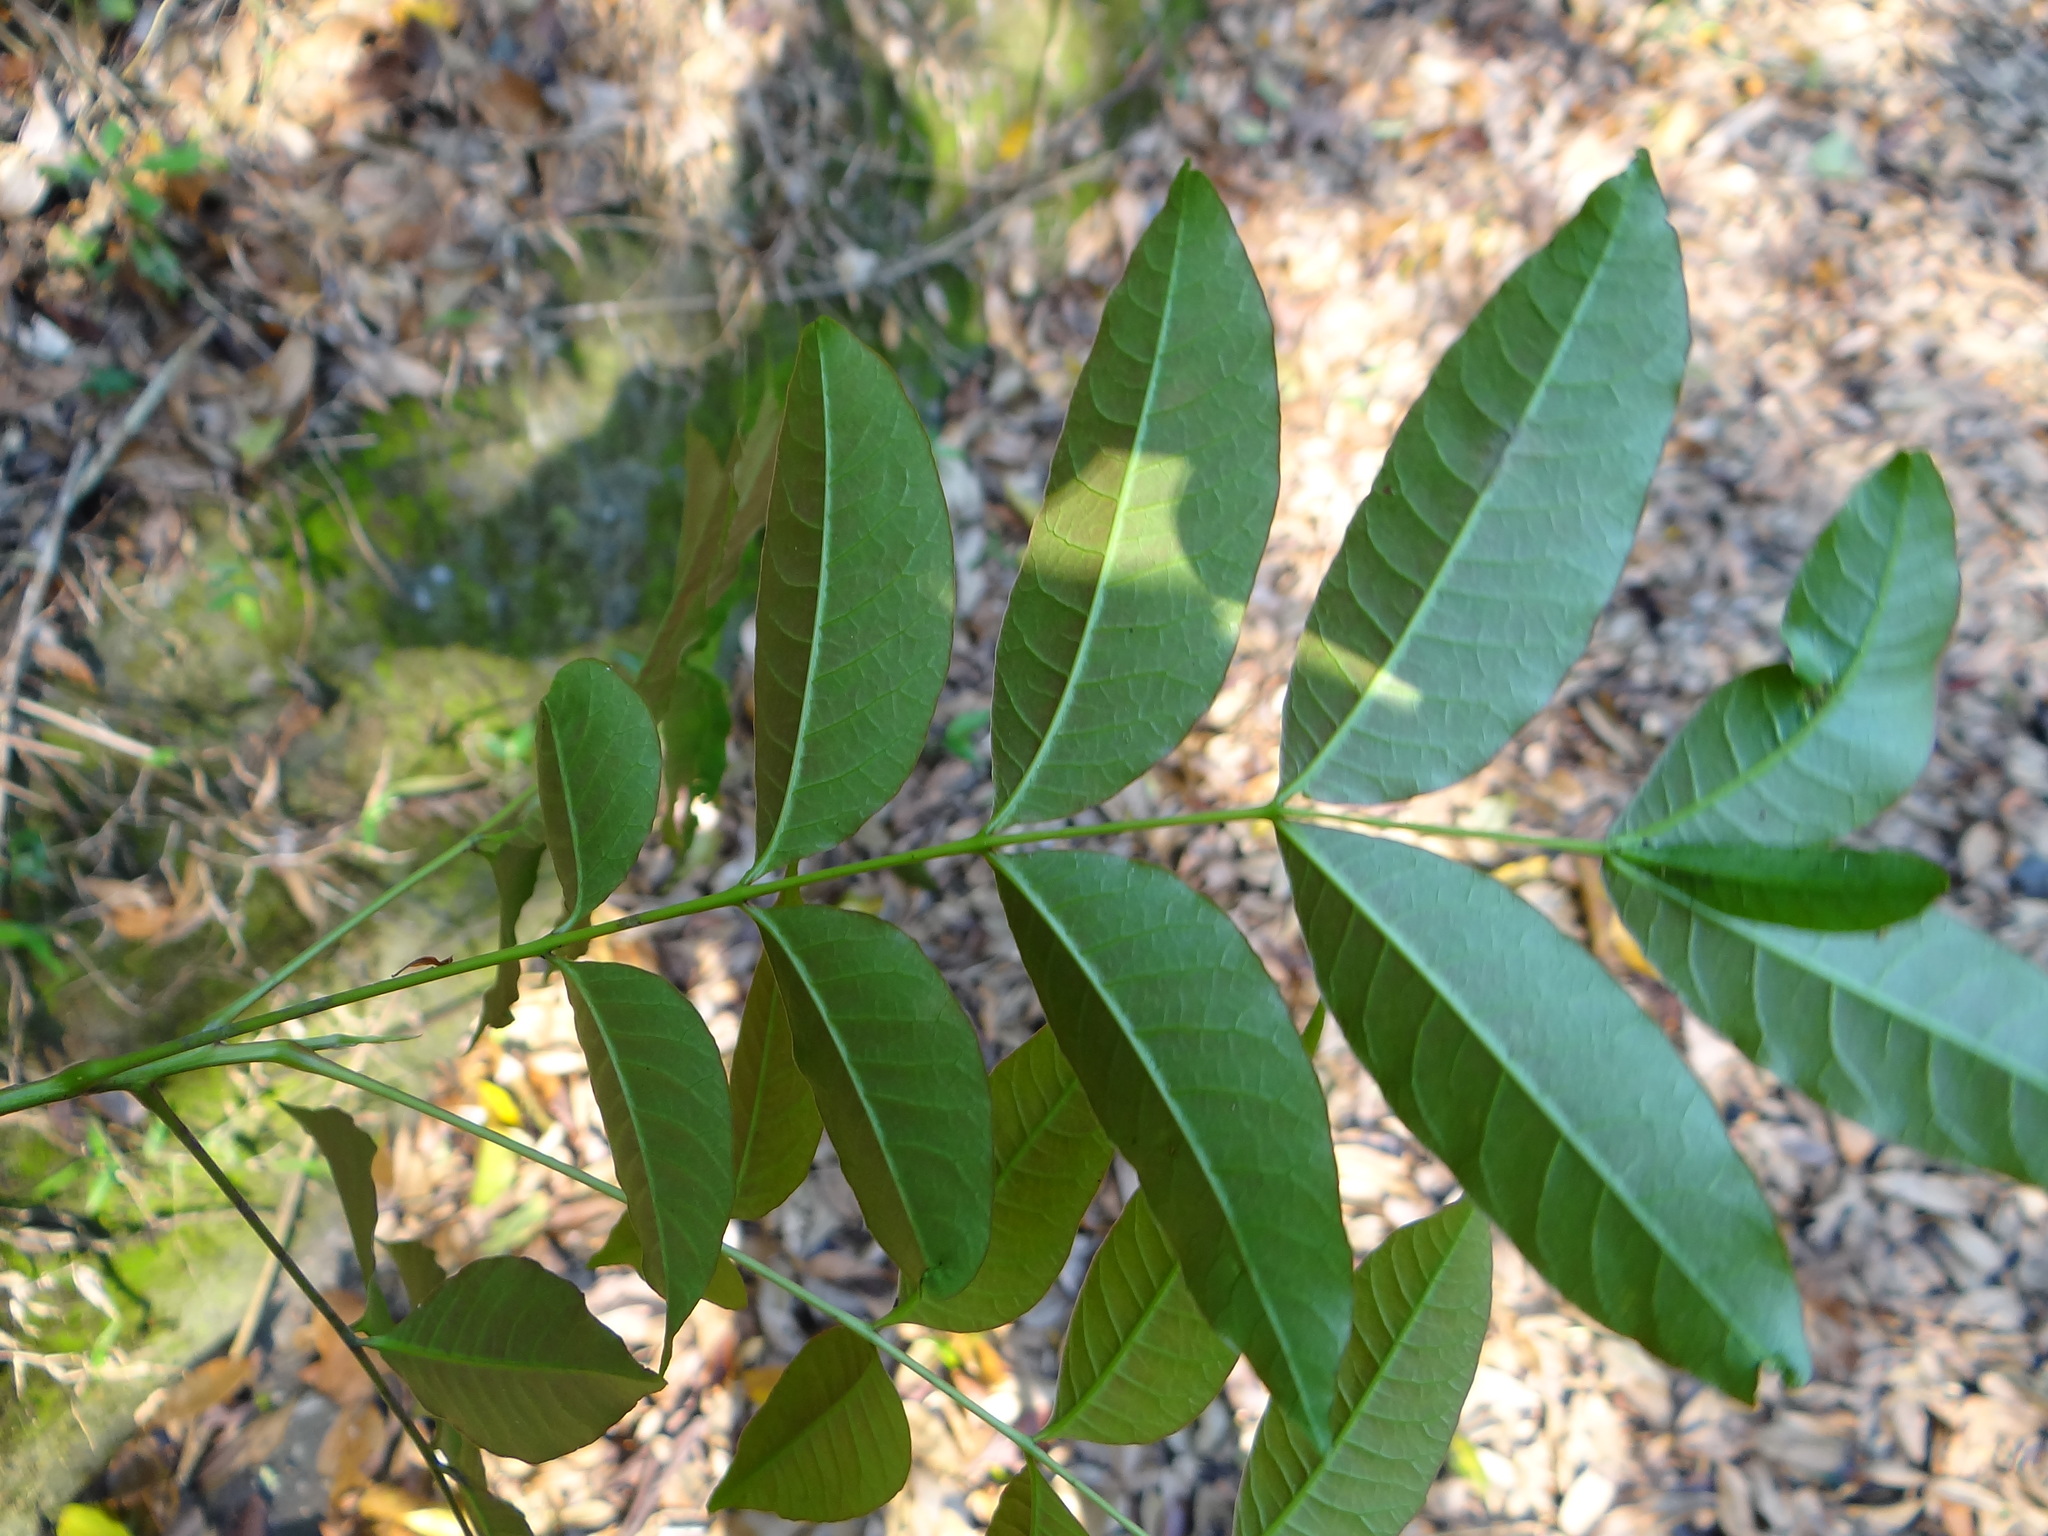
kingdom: Plantae
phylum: Tracheophyta
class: Magnoliopsida
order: Sapindales
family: Anacardiaceae
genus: Toxicodendron
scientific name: Toxicodendron succedaneum
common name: Wax tree
